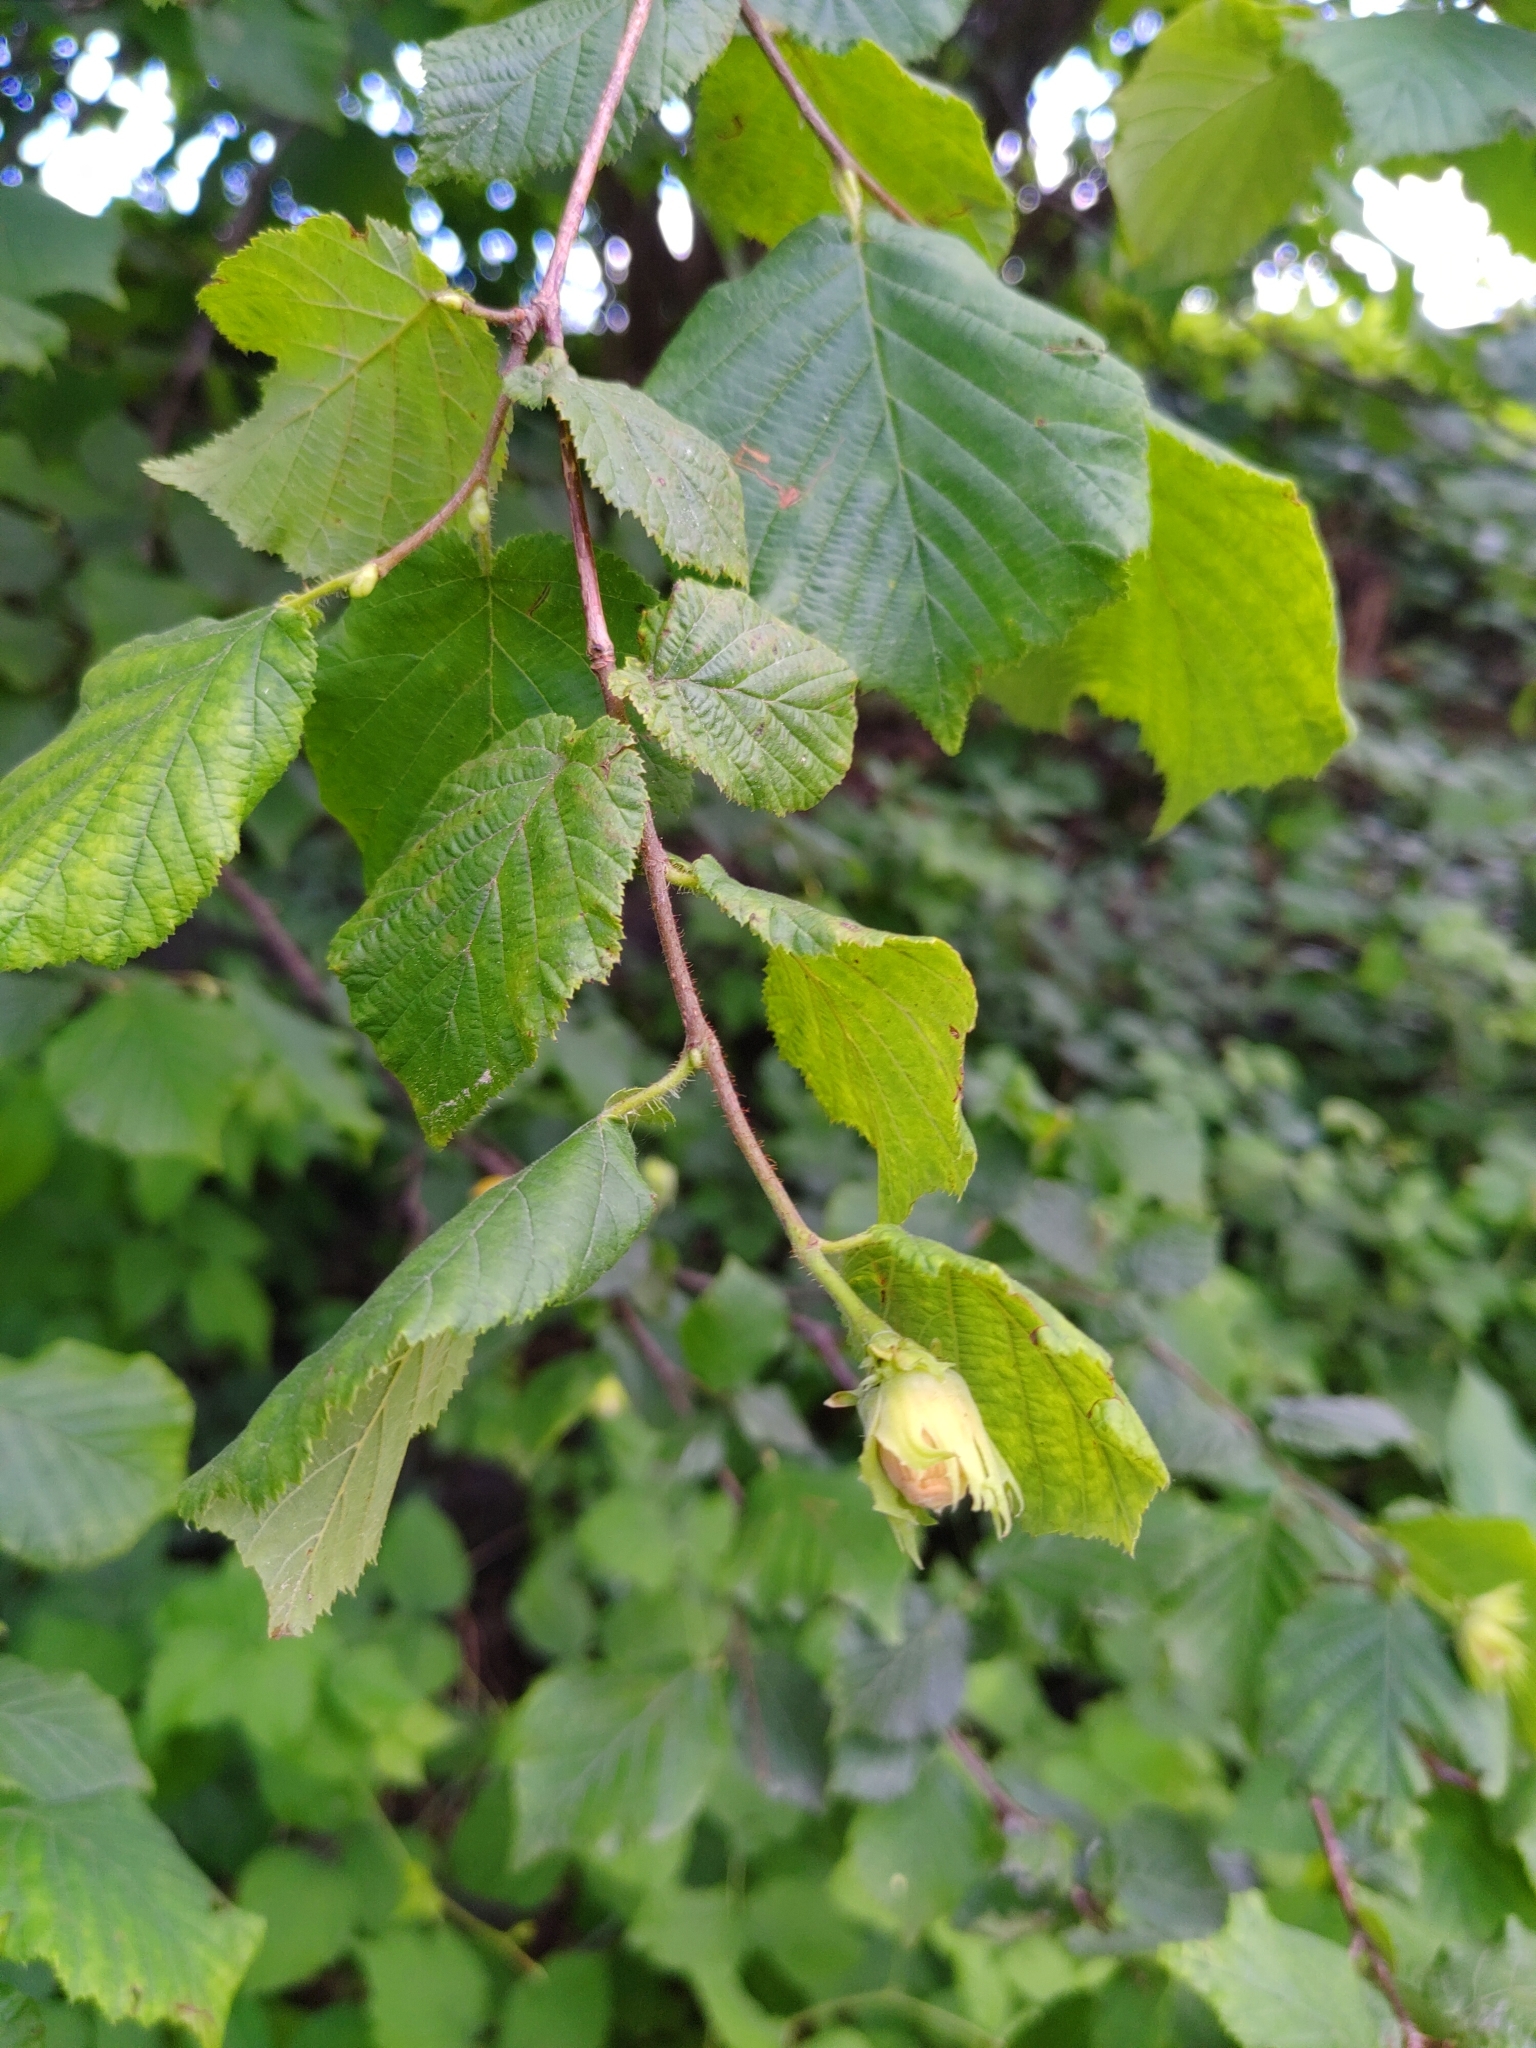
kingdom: Plantae
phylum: Tracheophyta
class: Magnoliopsida
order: Fagales
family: Betulaceae
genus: Corylus
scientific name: Corylus avellana
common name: European hazel
